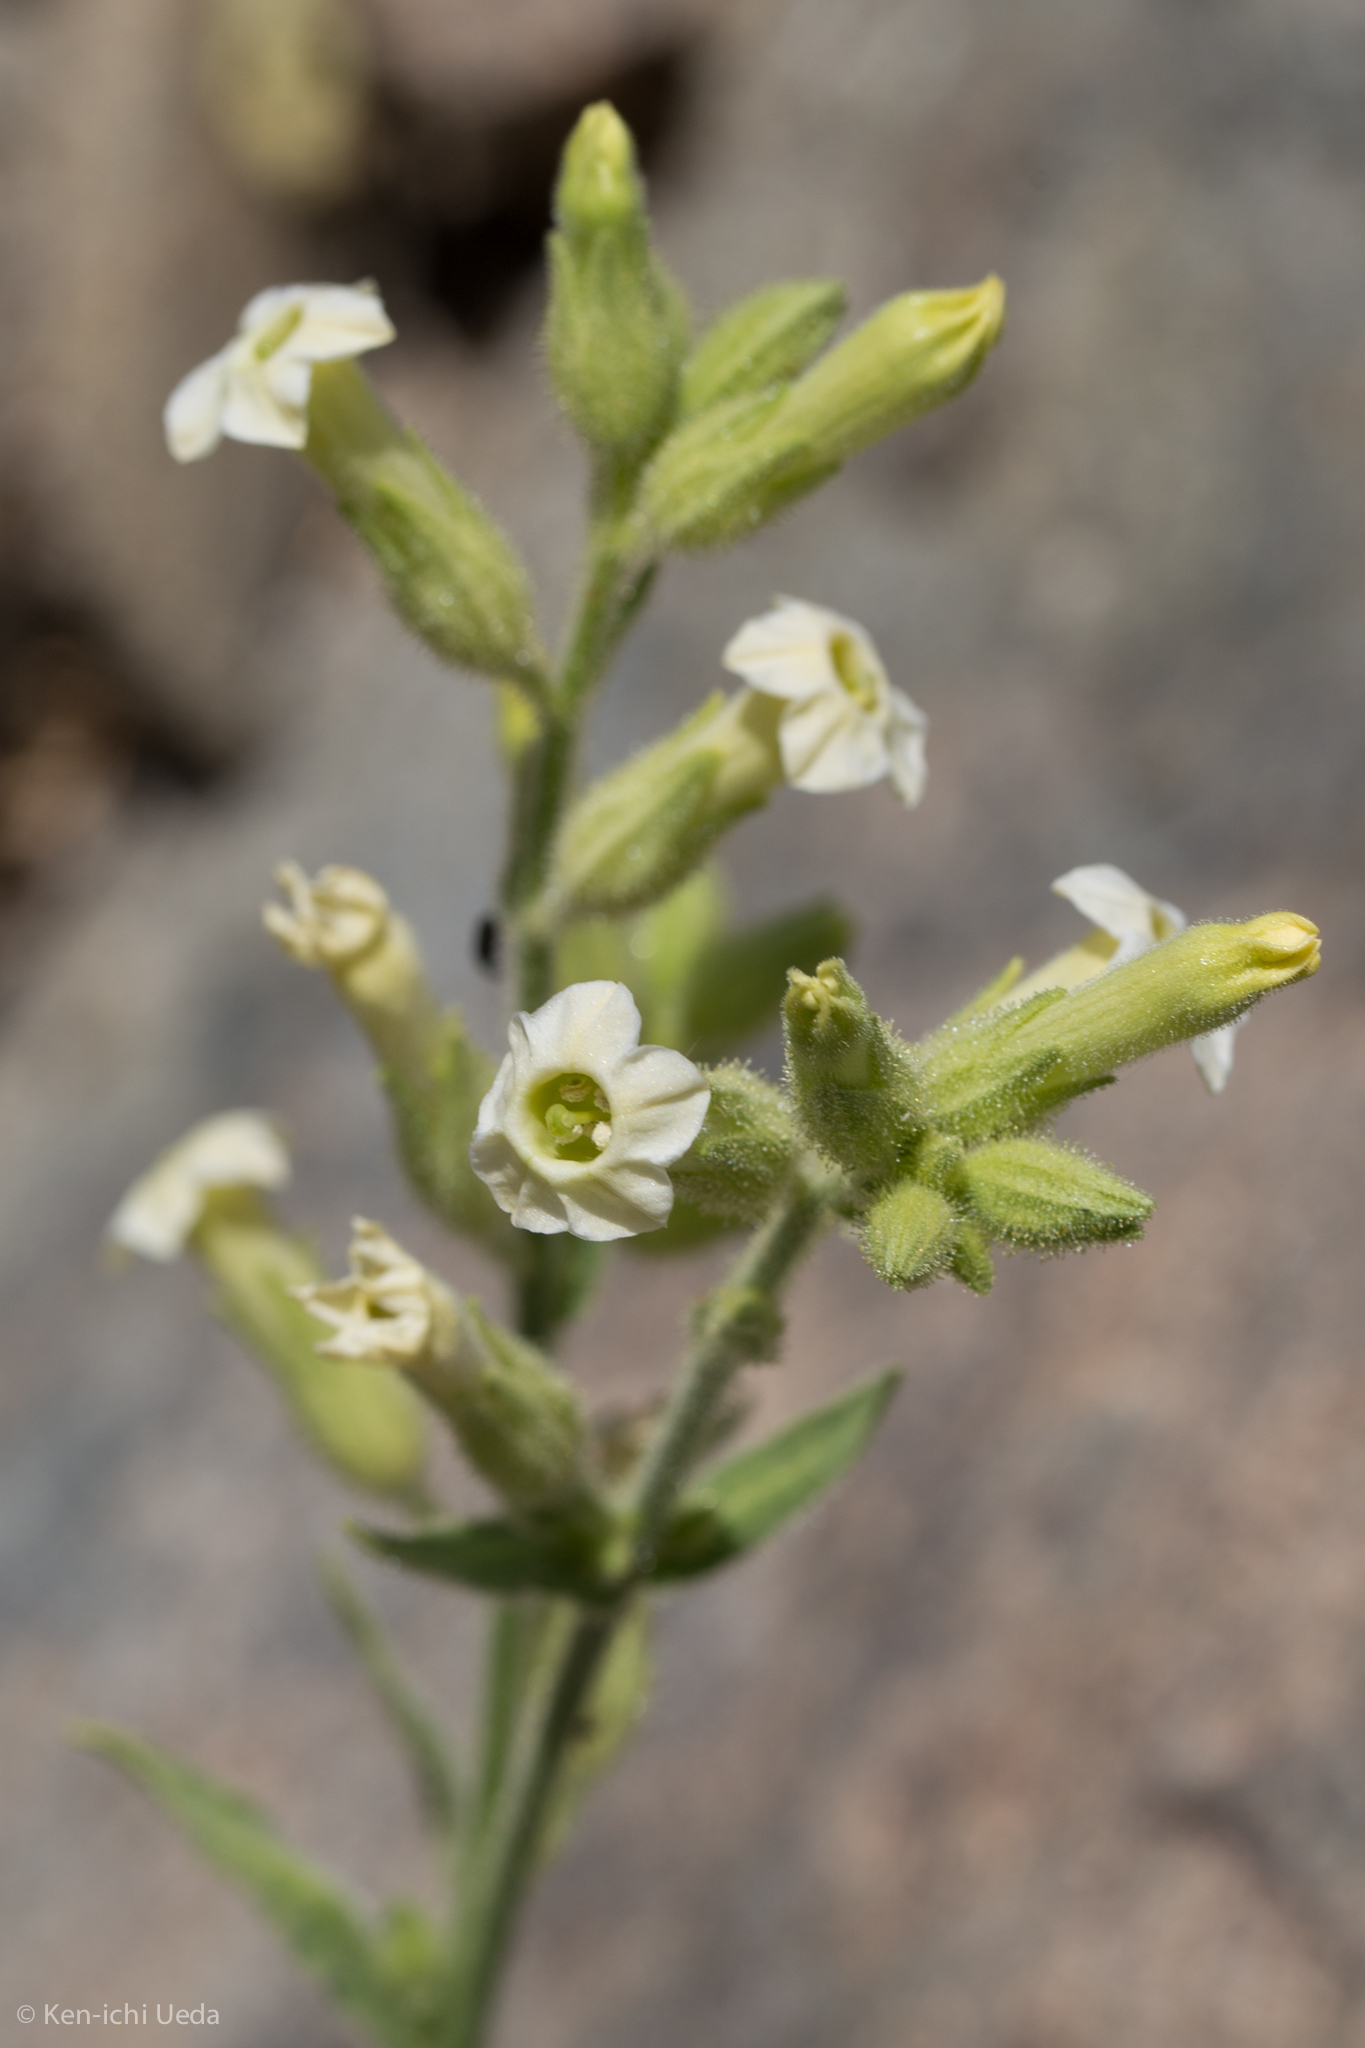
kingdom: Plantae
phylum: Tracheophyta
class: Magnoliopsida
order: Solanales
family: Solanaceae
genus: Nicotiana
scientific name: Nicotiana obtusifolia
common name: Desert tobacco
